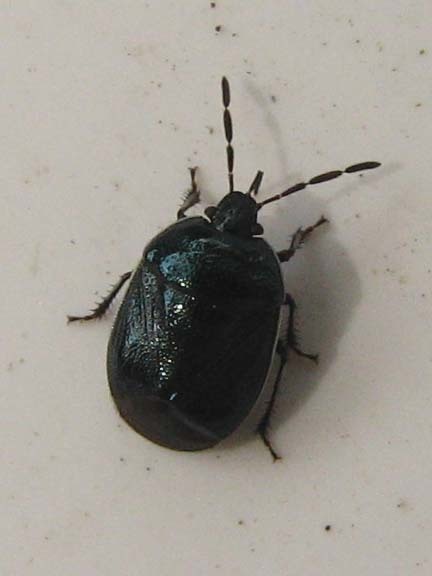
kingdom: Animalia
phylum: Arthropoda
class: Insecta
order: Hemiptera
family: Cydnidae
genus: Sehirus
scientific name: Sehirus cinctus
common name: White-margined burrower bug
